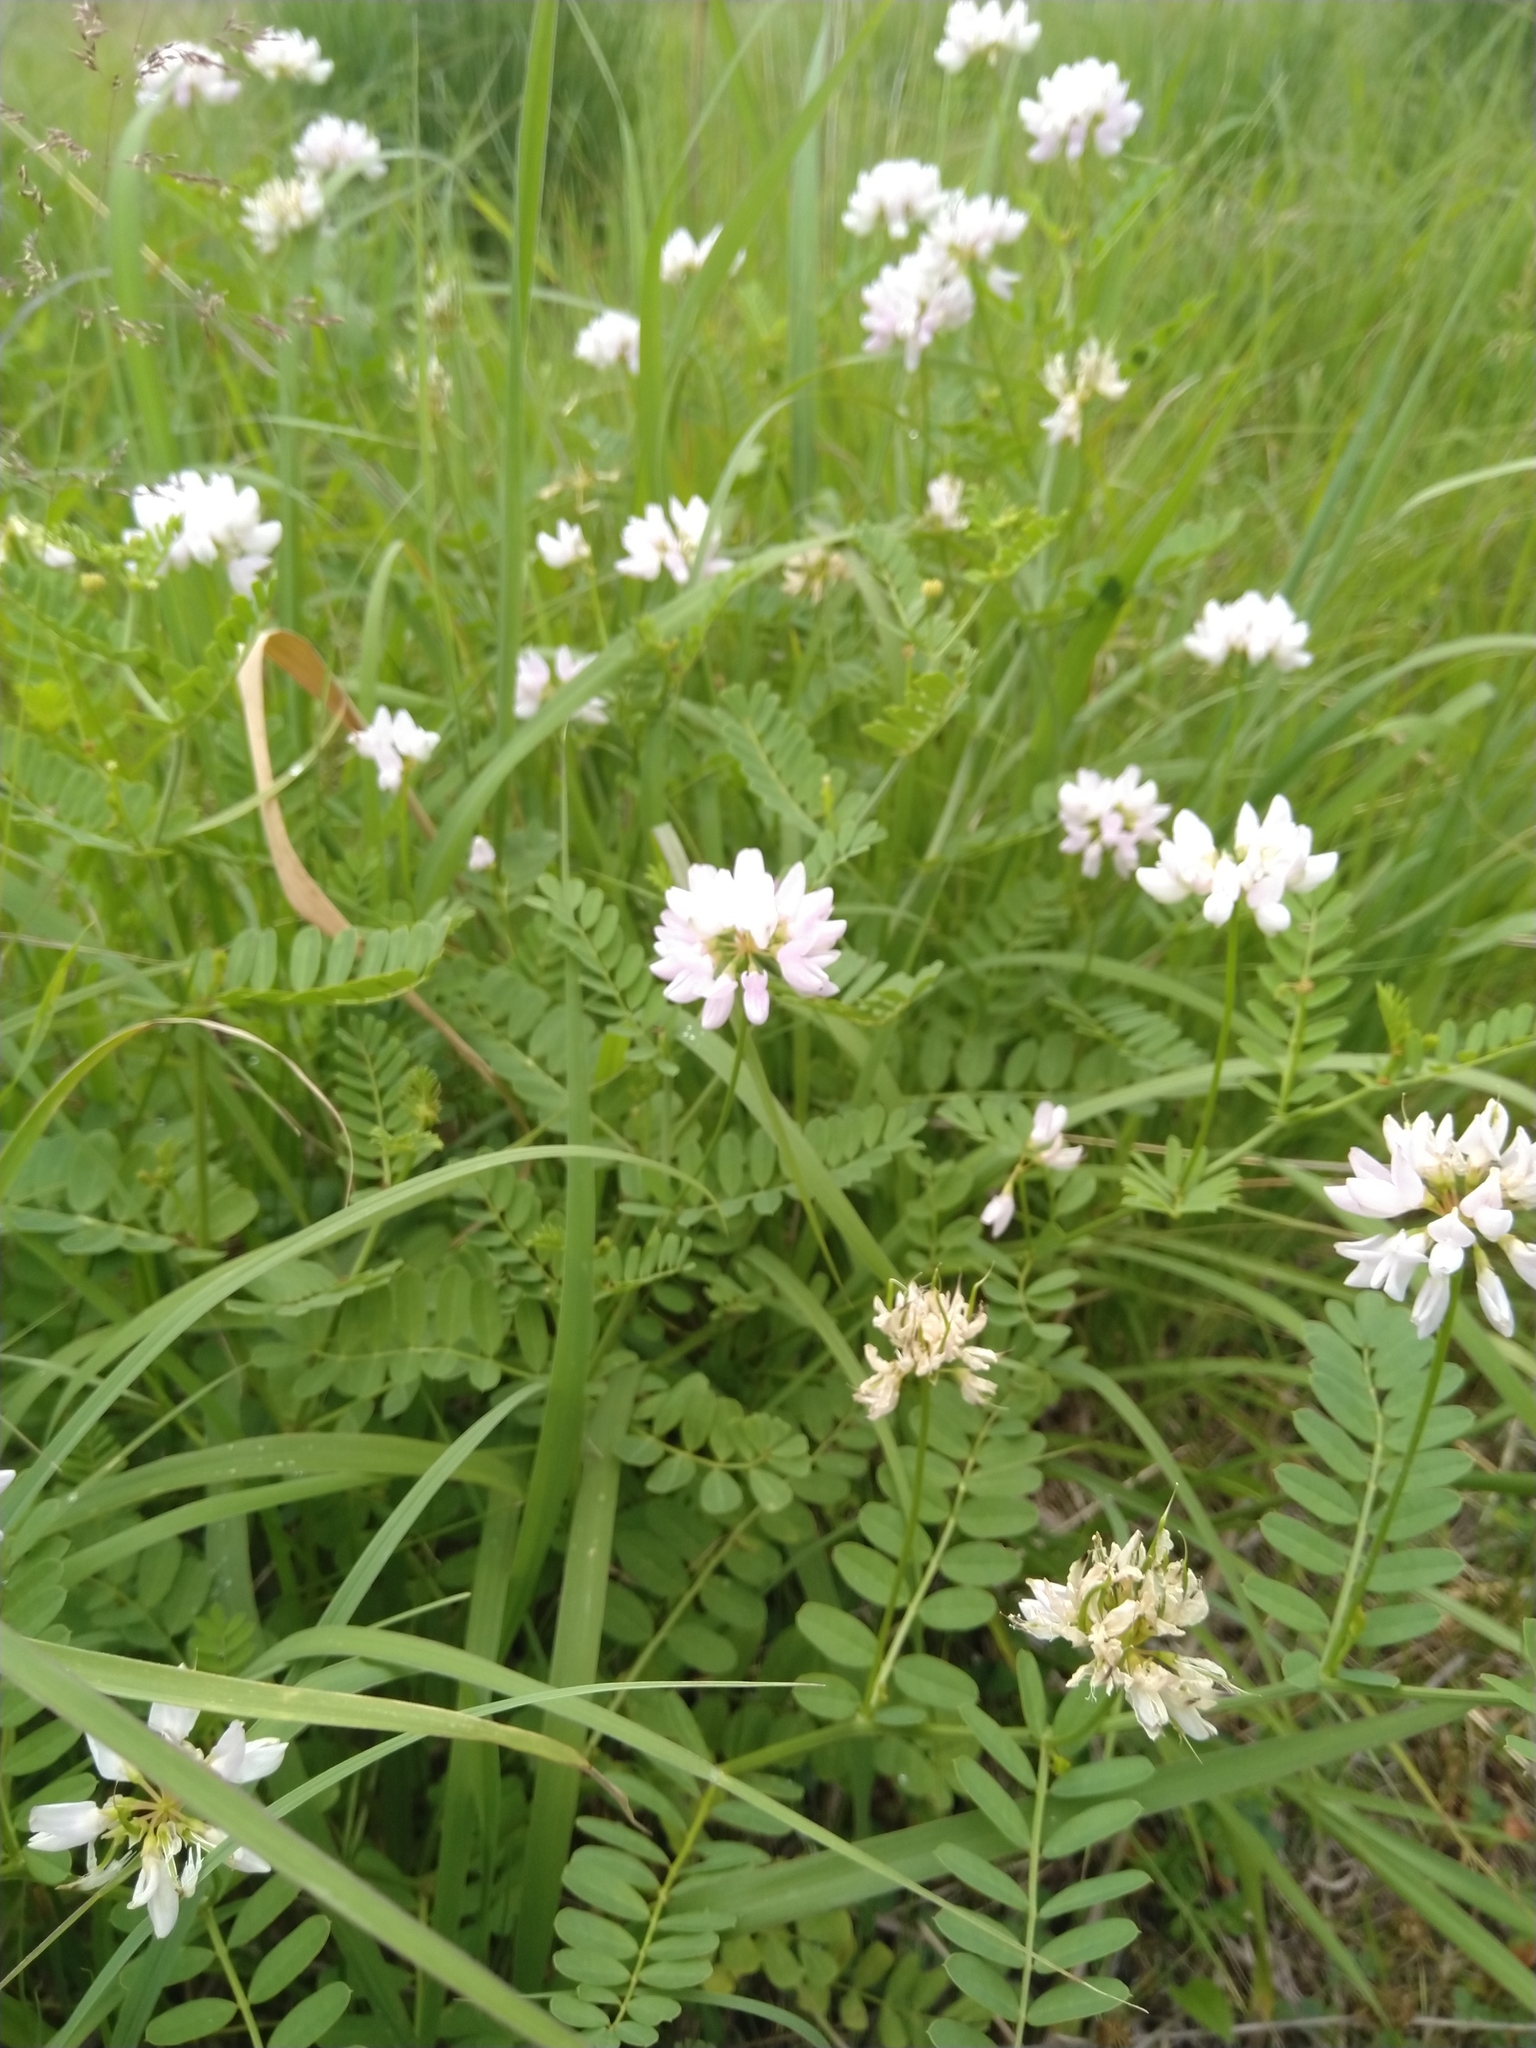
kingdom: Plantae
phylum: Tracheophyta
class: Magnoliopsida
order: Fabales
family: Fabaceae
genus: Coronilla
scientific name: Coronilla varia
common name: Crownvetch
